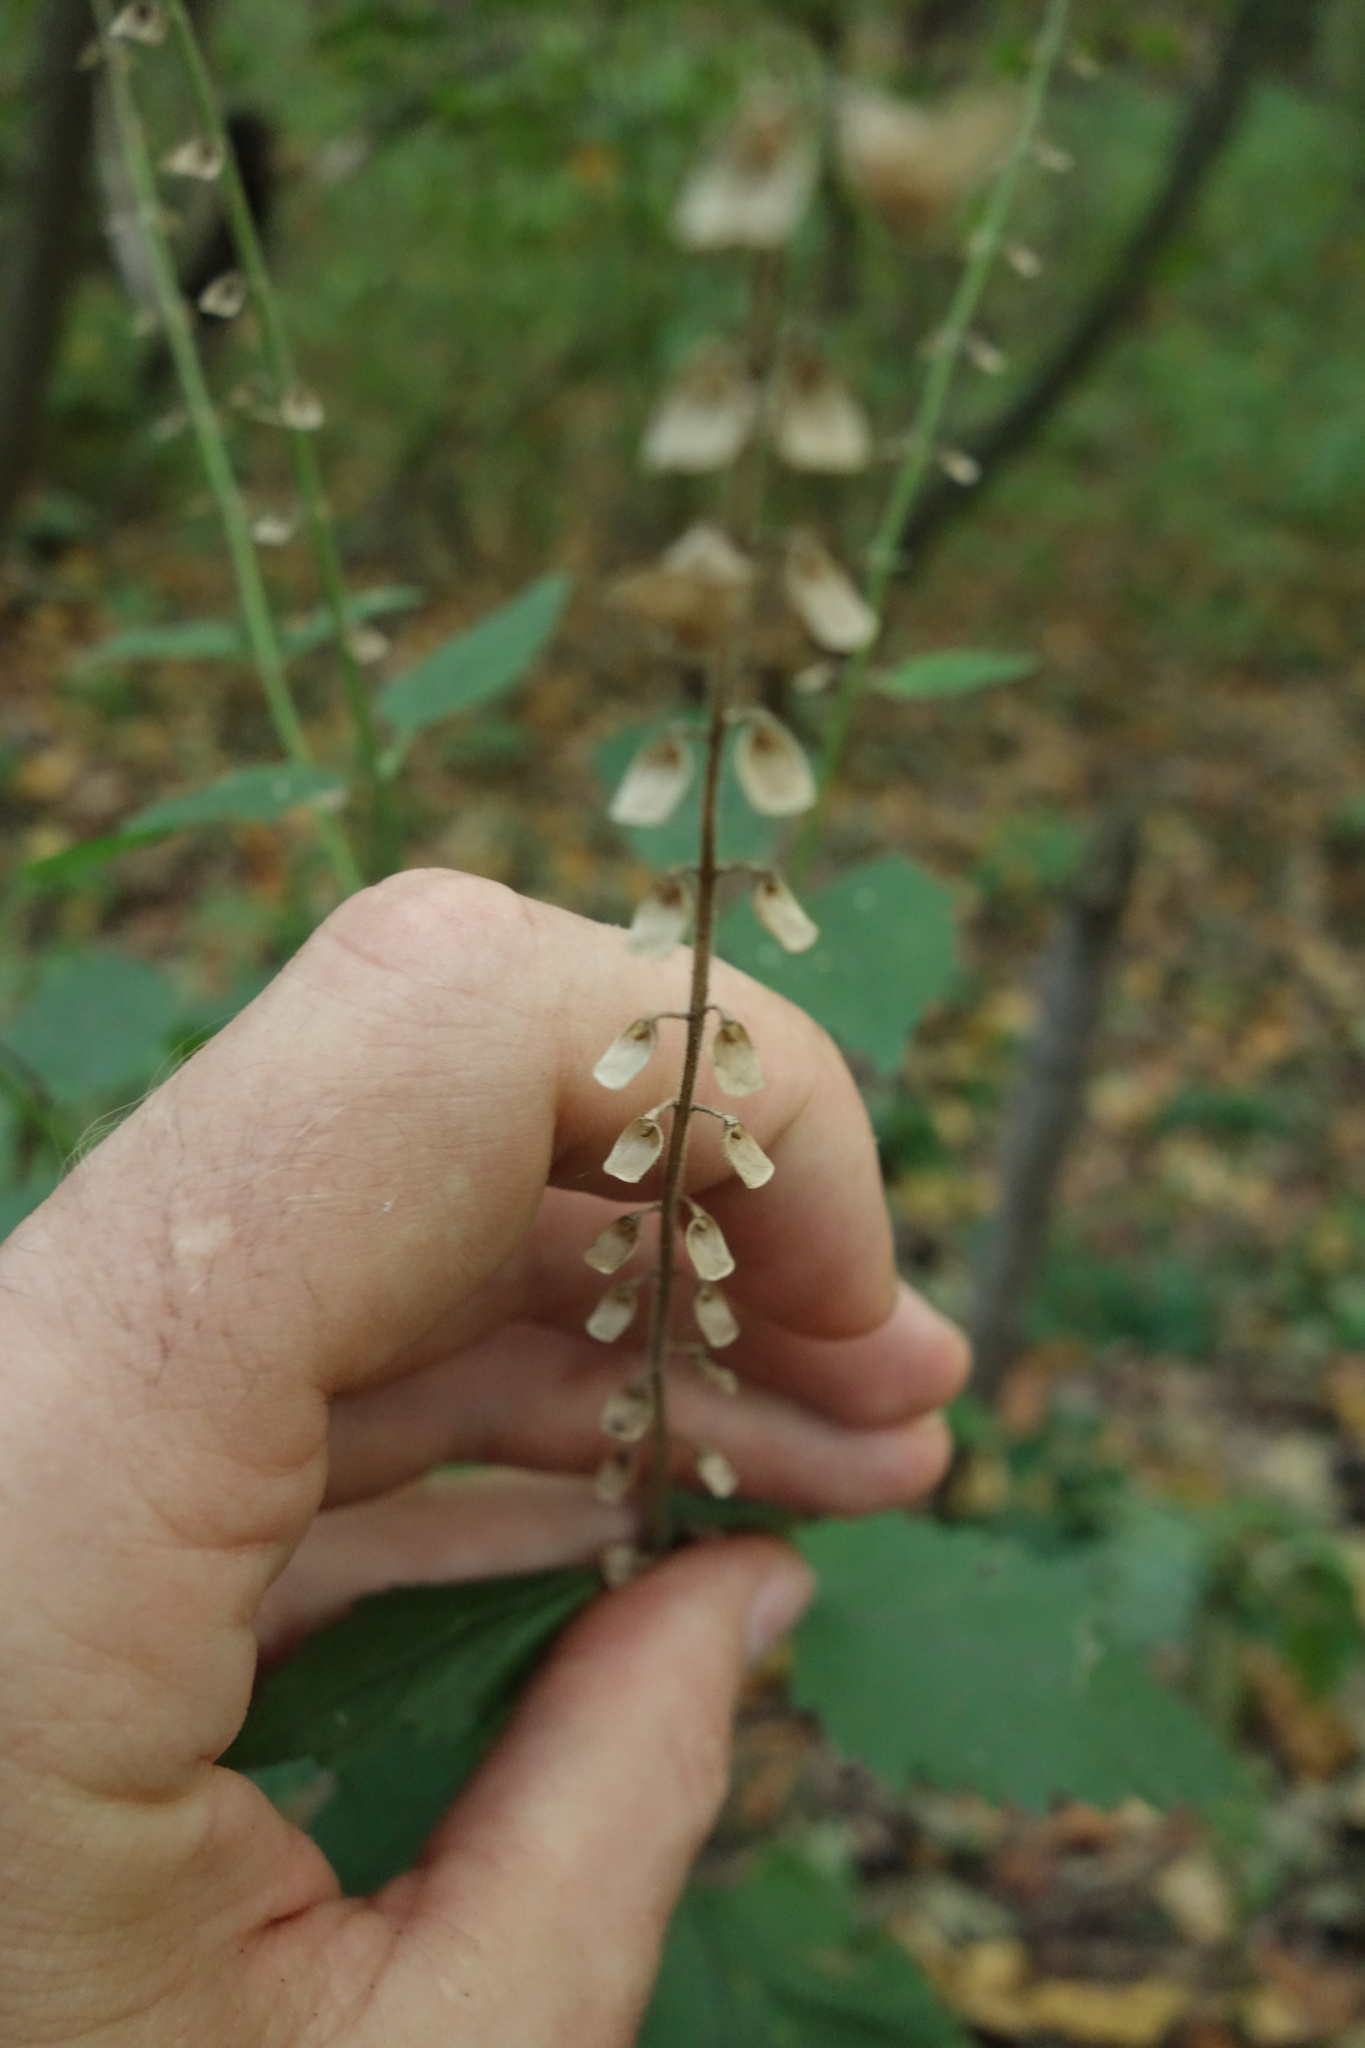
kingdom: Plantae
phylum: Tracheophyta
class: Magnoliopsida
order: Lamiales
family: Lamiaceae
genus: Scutellaria
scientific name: Scutellaria altissima
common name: Somerset skullcap
